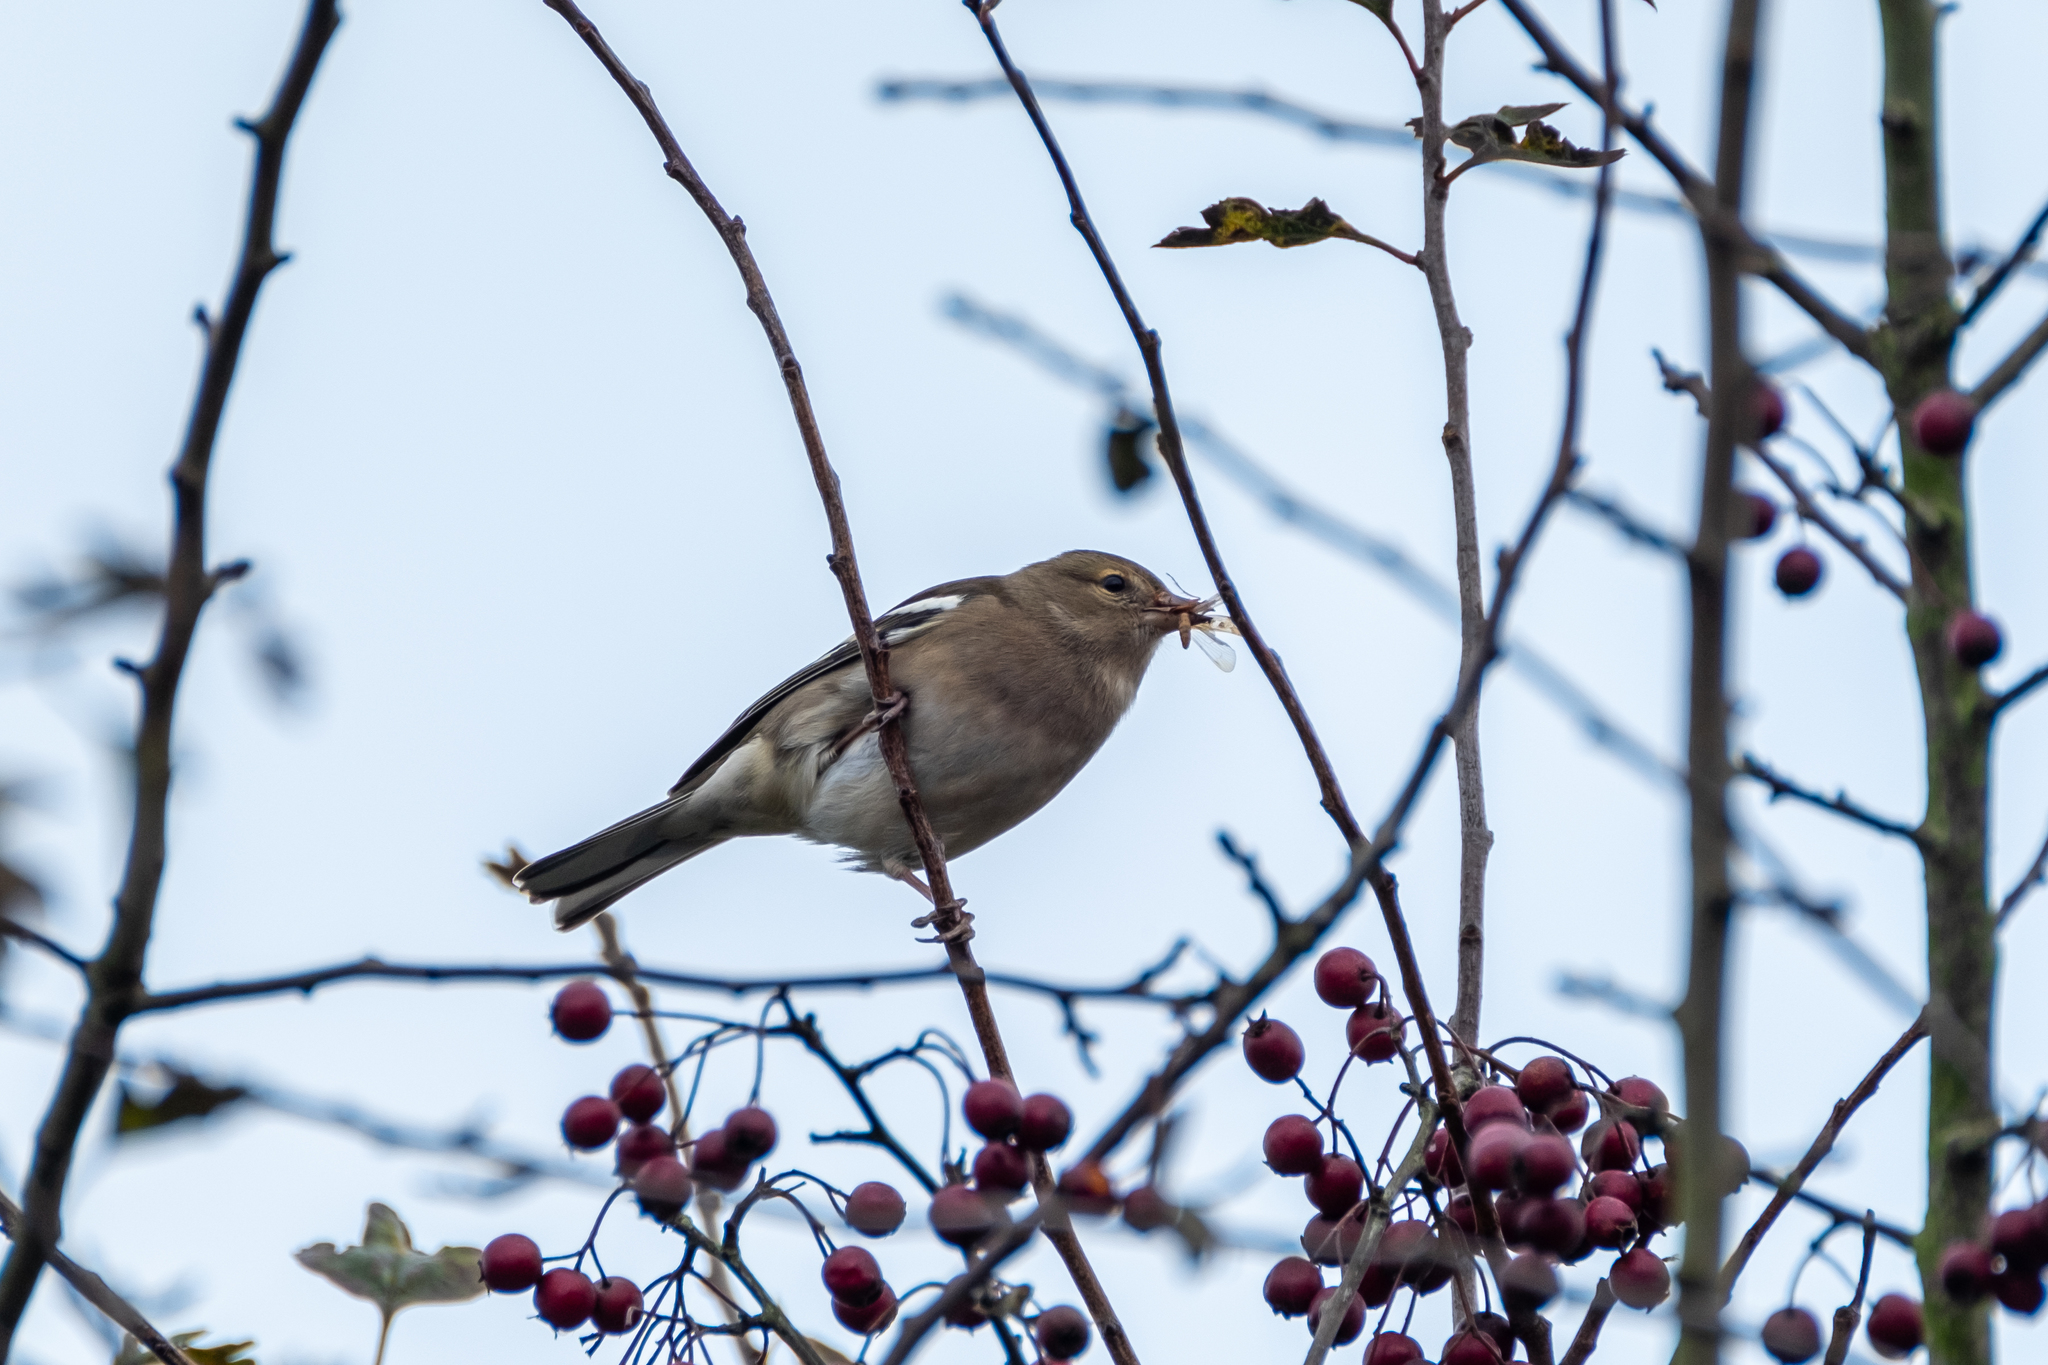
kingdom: Animalia
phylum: Chordata
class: Aves
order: Passeriformes
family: Fringillidae
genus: Fringilla
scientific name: Fringilla coelebs
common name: Common chaffinch
